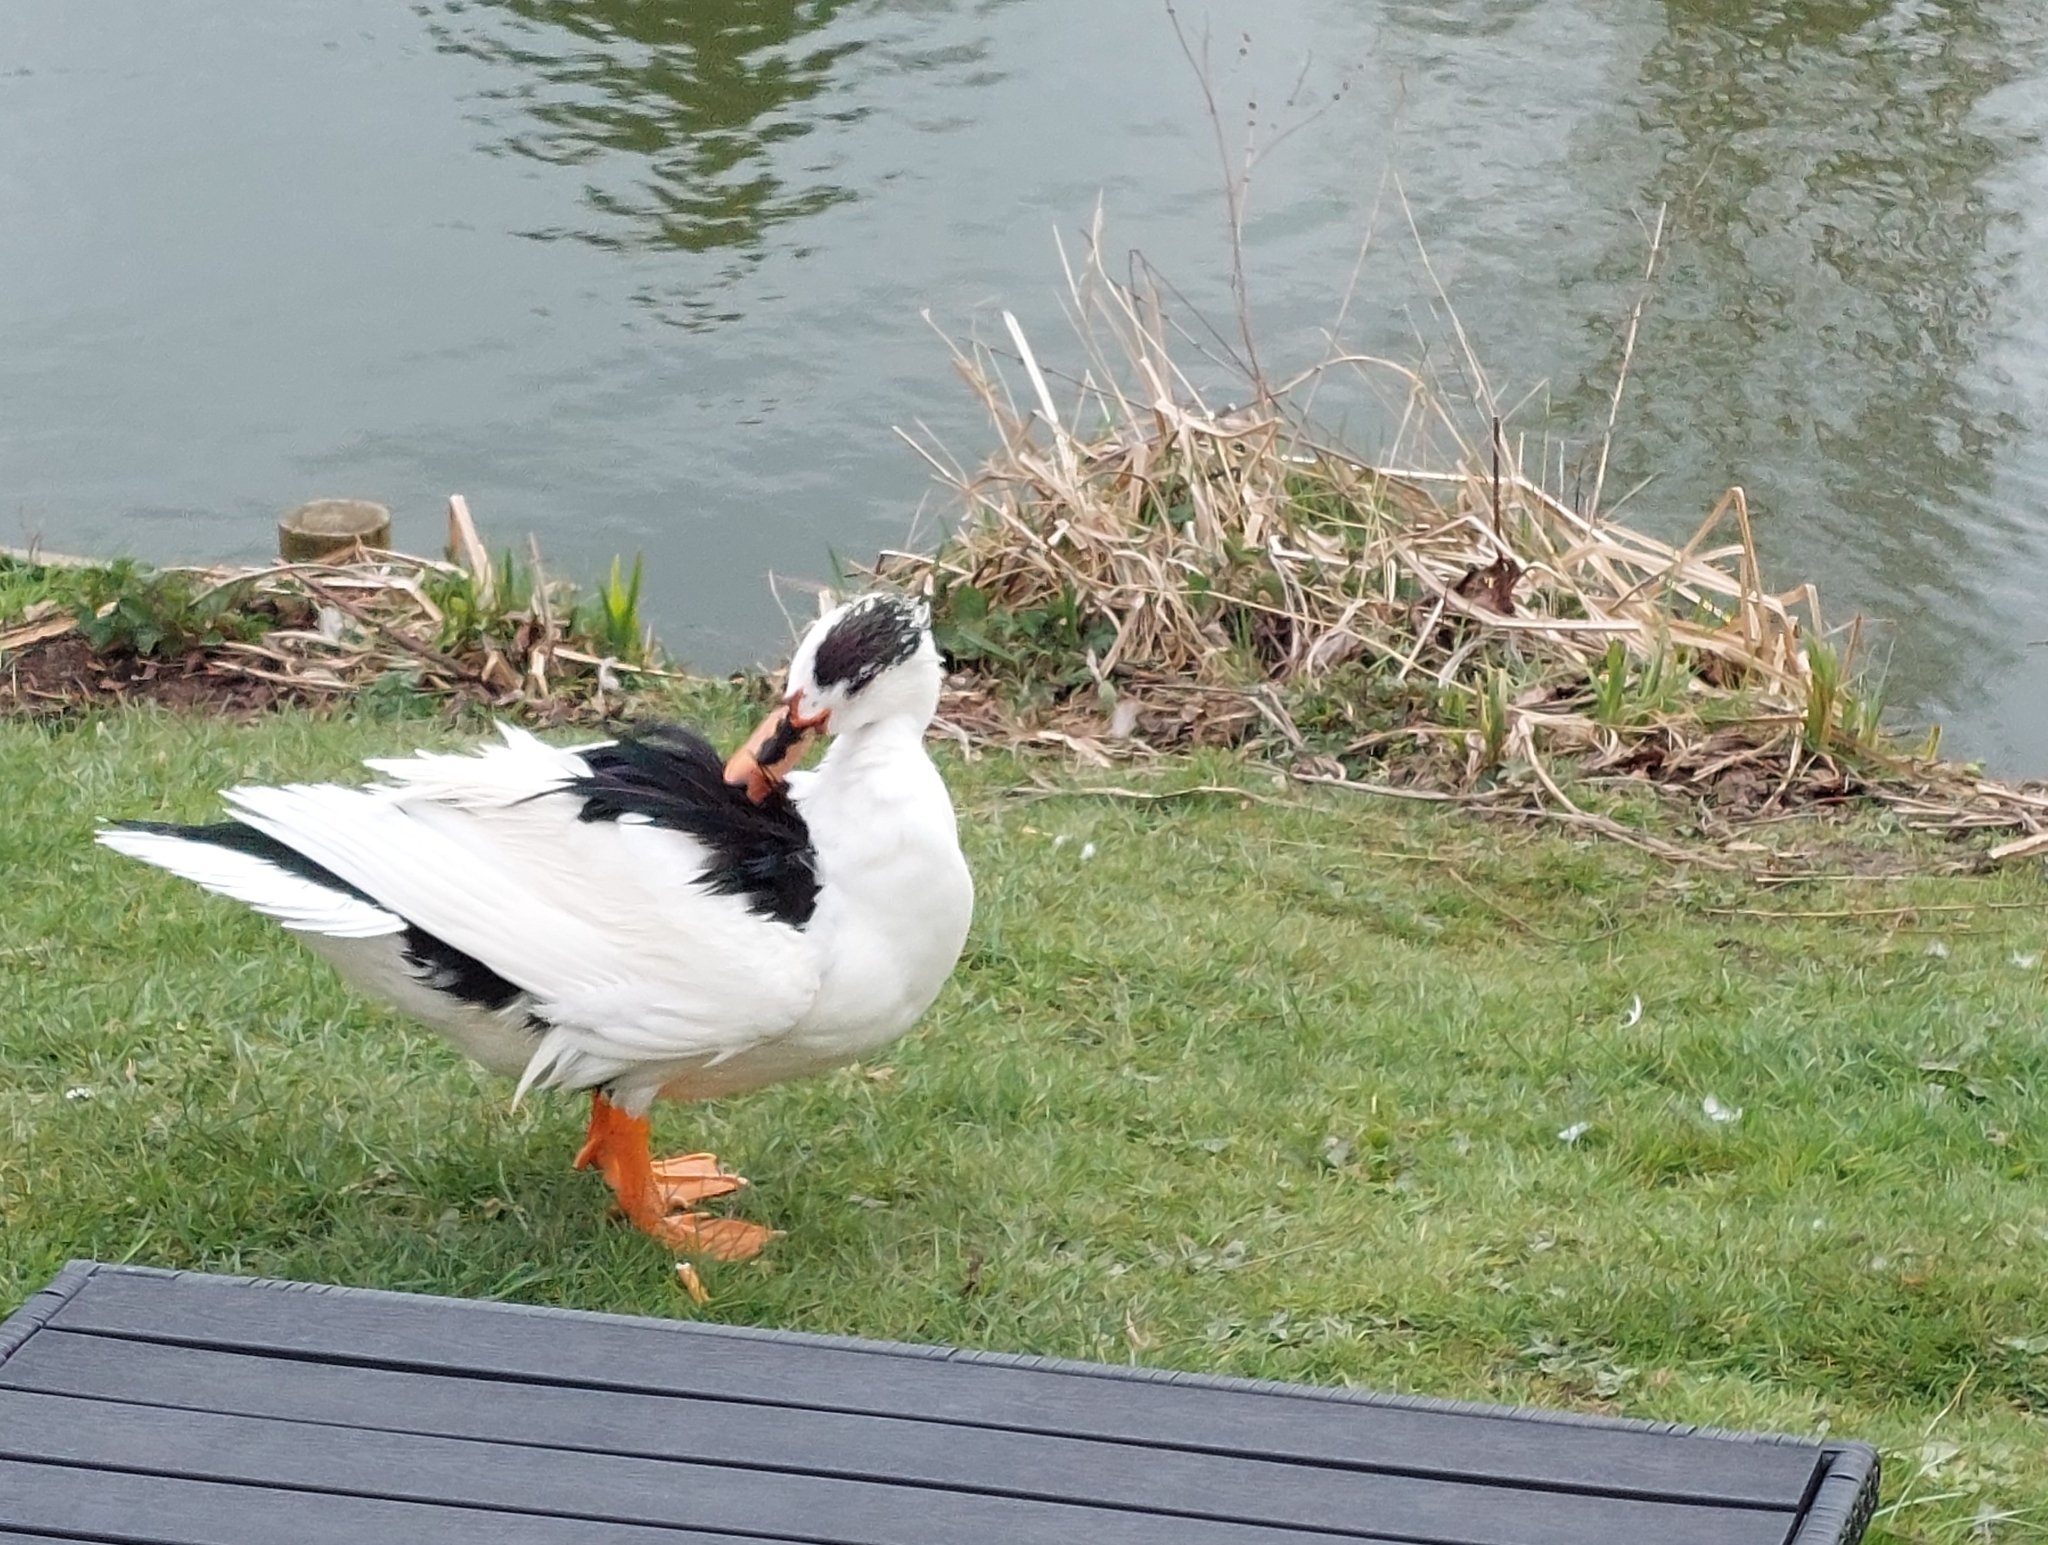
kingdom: Animalia
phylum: Chordata
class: Aves
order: Anseriformes
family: Anatidae
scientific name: Anatidae
